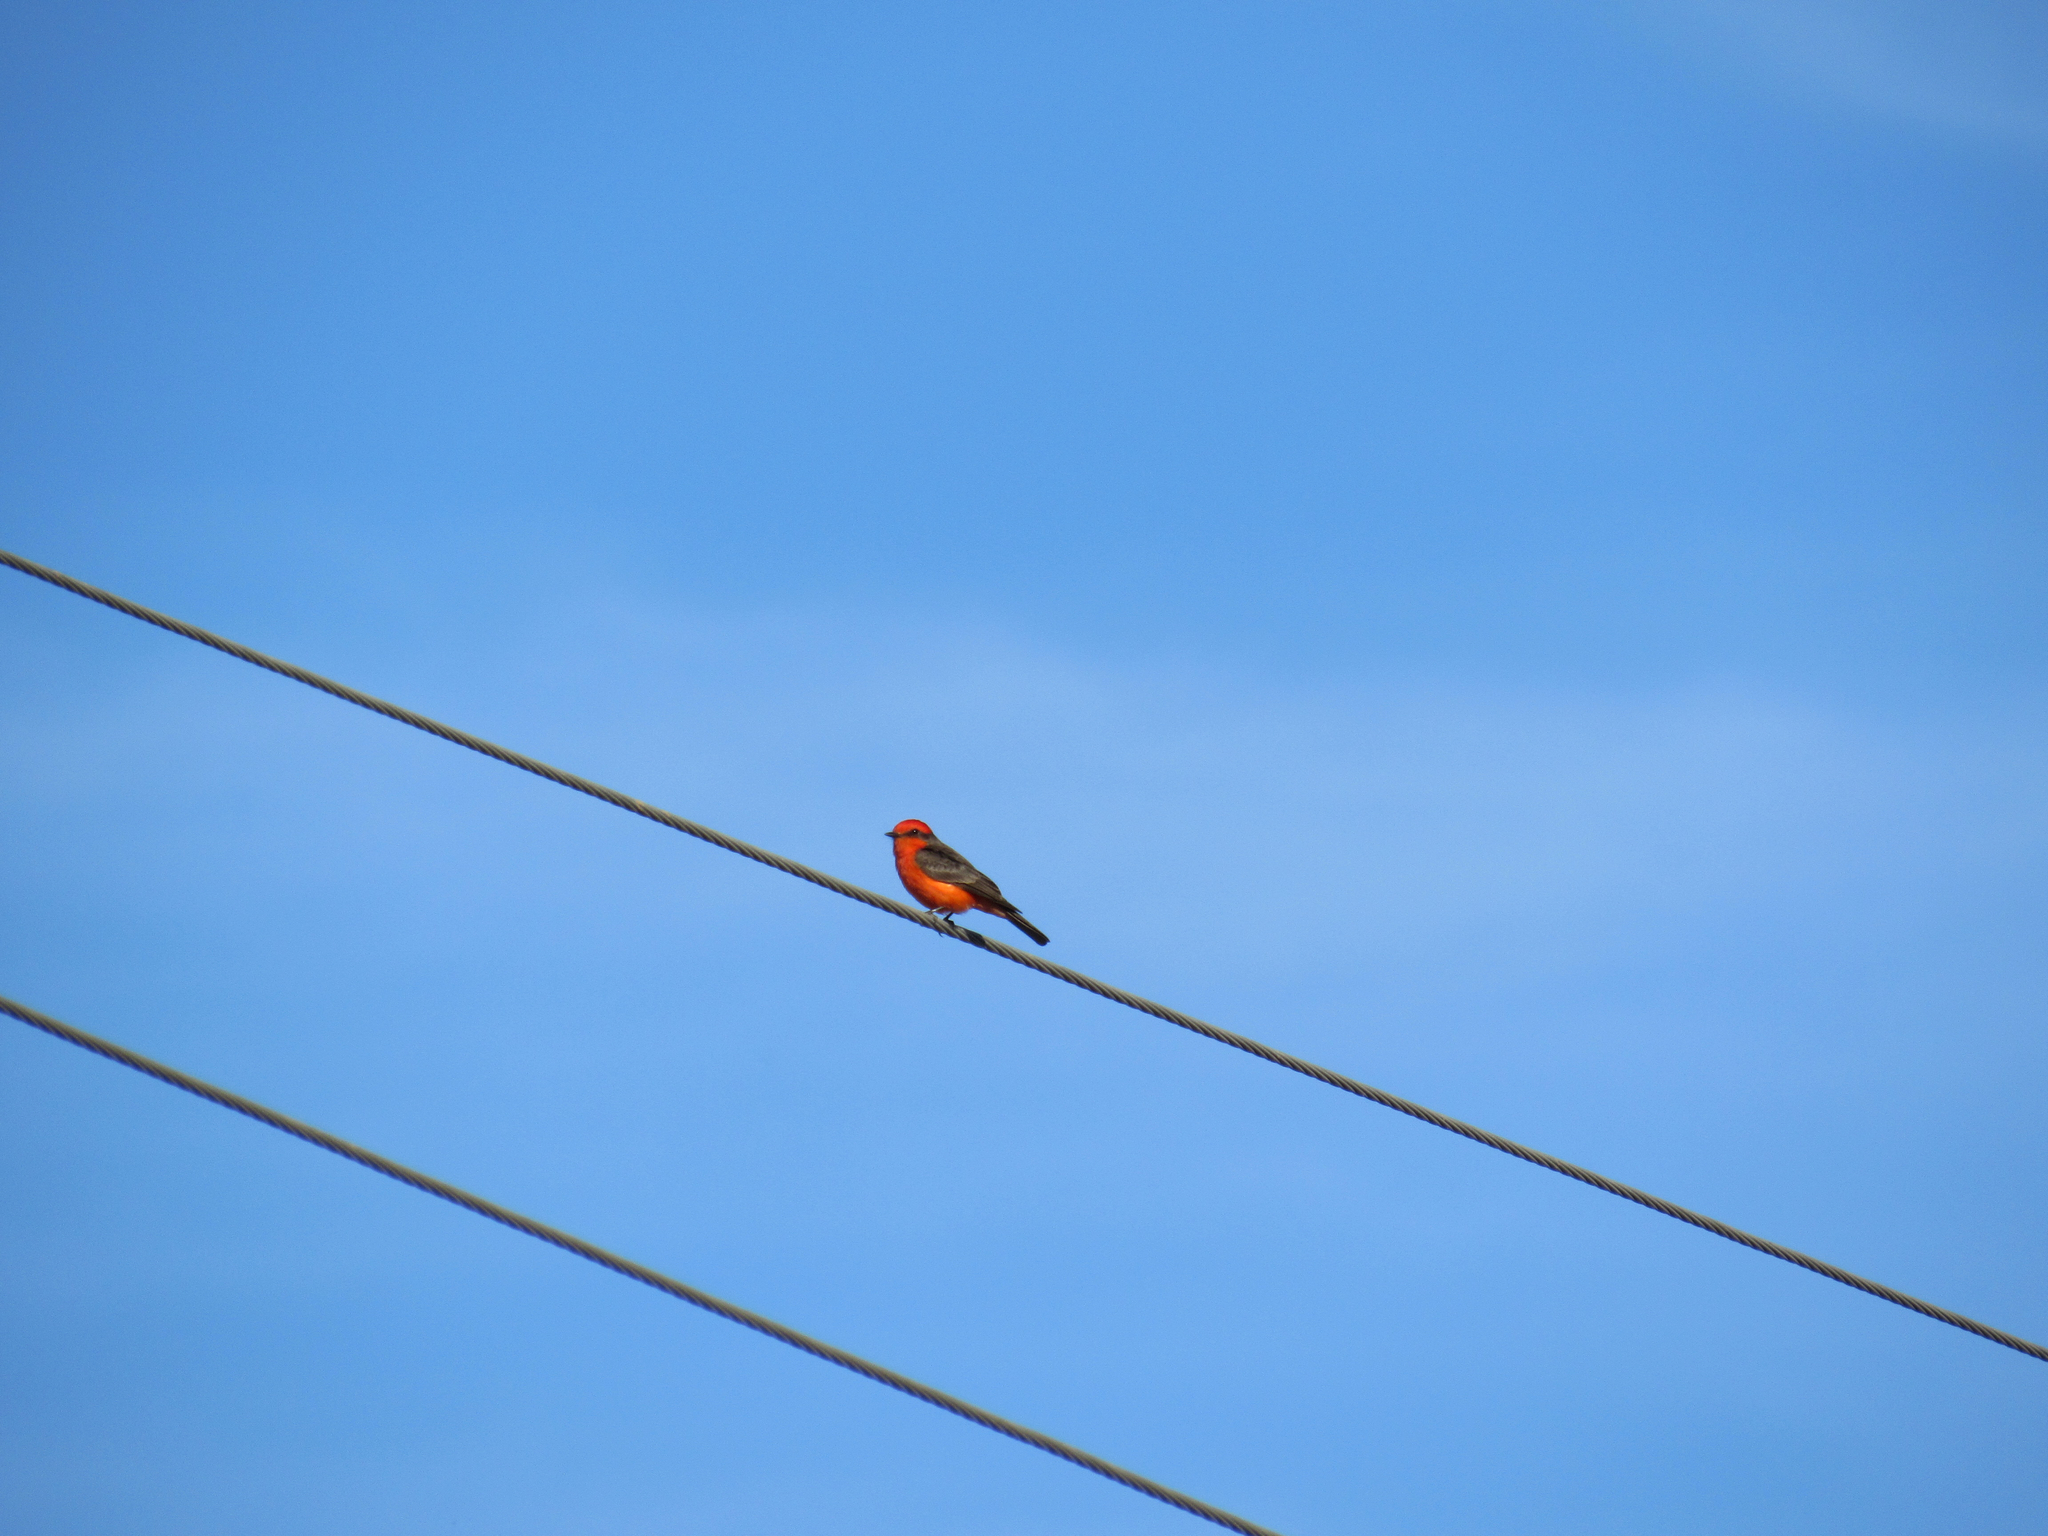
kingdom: Animalia
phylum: Chordata
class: Aves
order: Passeriformes
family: Tyrannidae
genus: Pyrocephalus
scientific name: Pyrocephalus rubinus
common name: Vermilion flycatcher
